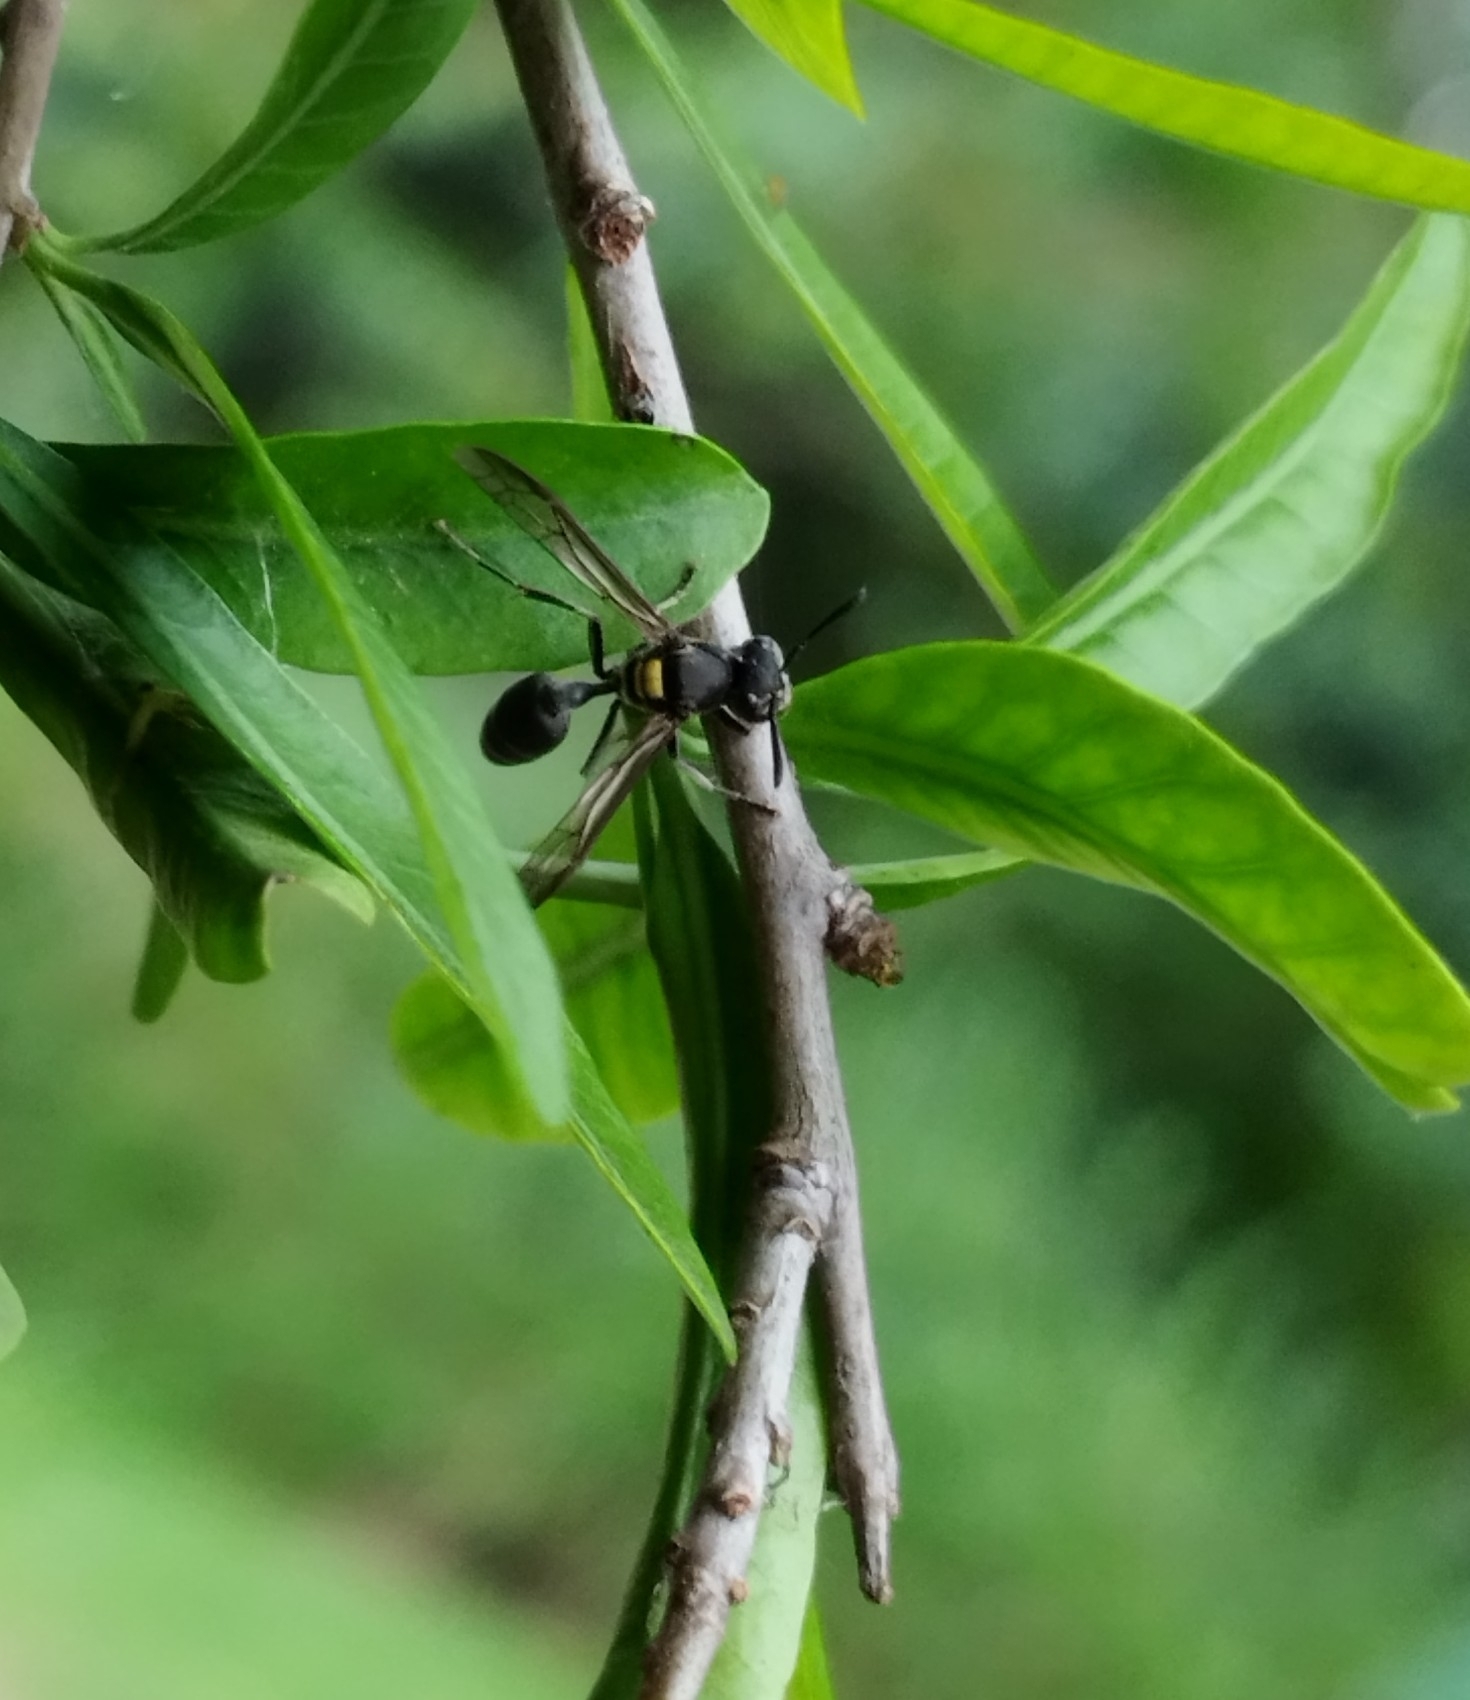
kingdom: Animalia
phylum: Arthropoda
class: Insecta
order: Hymenoptera
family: Eumenidae
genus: Polybia
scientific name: Polybia scutellaris
